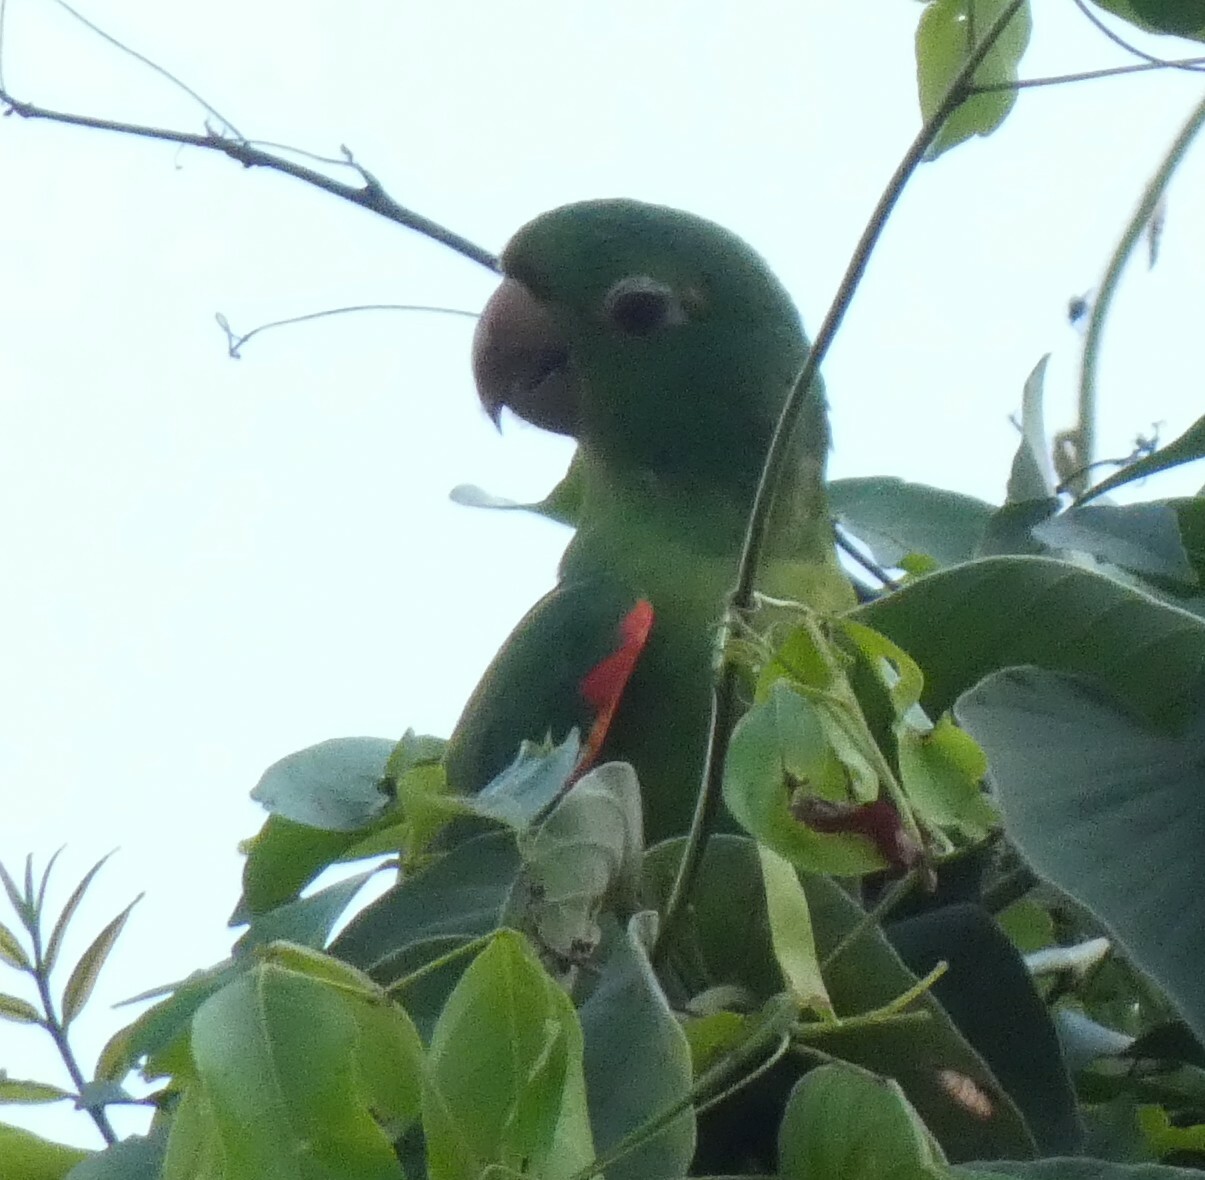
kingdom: Animalia
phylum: Chordata
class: Aves
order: Psittaciformes
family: Psittacidae
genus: Aratinga
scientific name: Aratinga leucophthalma
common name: White-eyed parakeet
